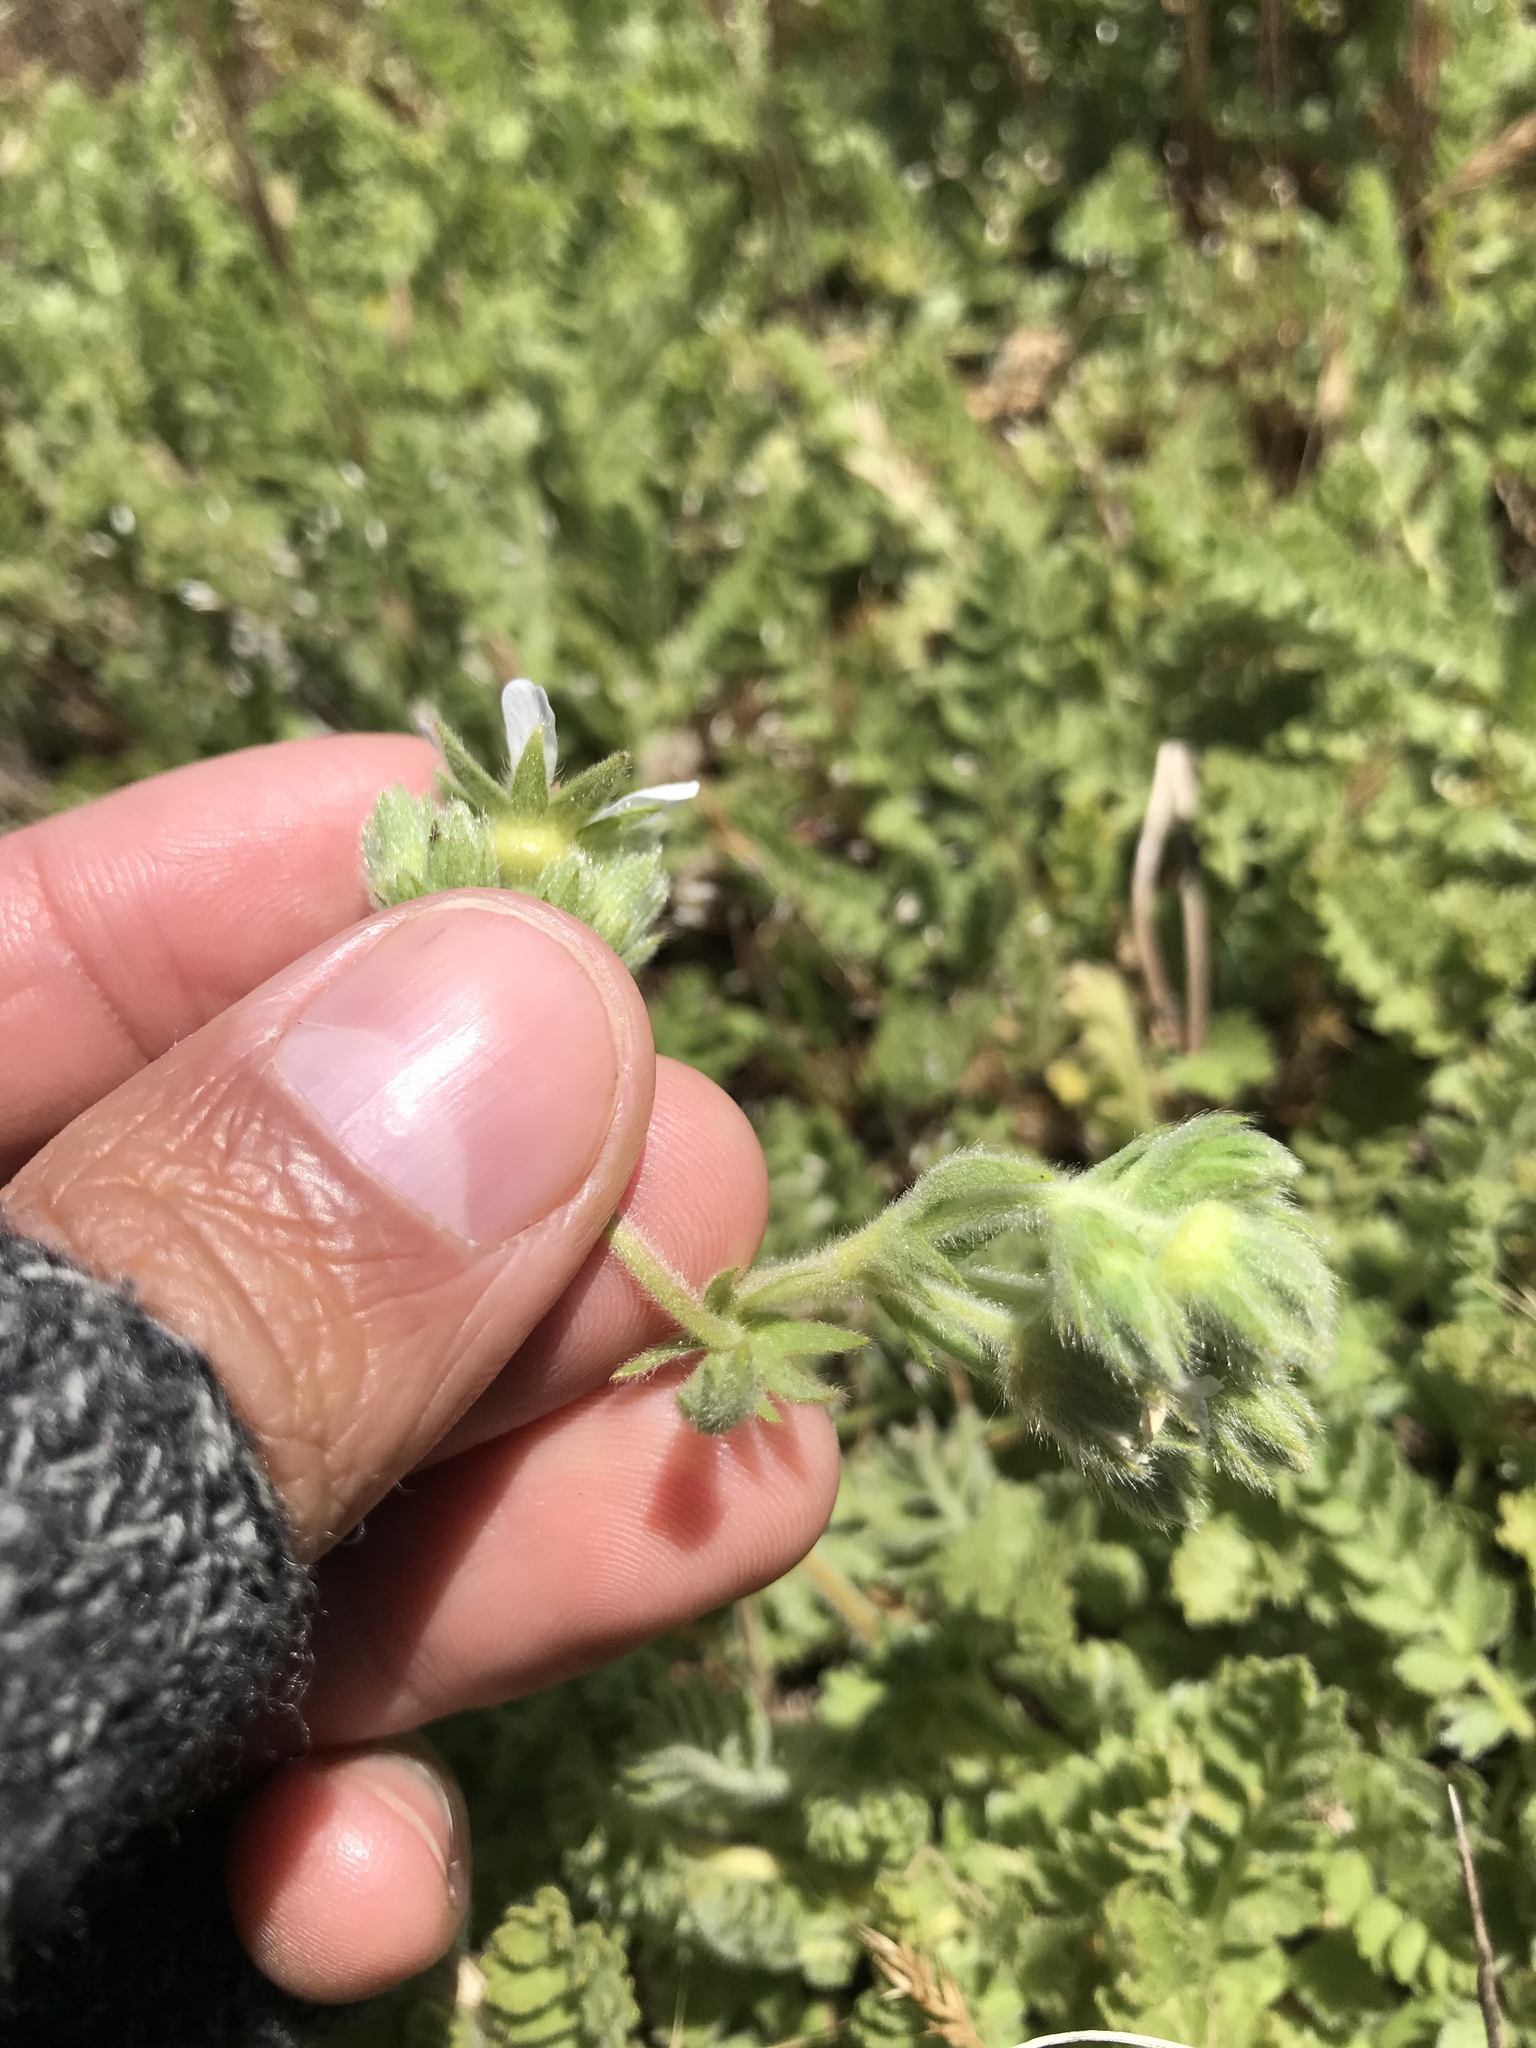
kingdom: Plantae
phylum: Tracheophyta
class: Magnoliopsida
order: Rosales
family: Rosaceae
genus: Potentilla
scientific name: Potentilla marinensis
